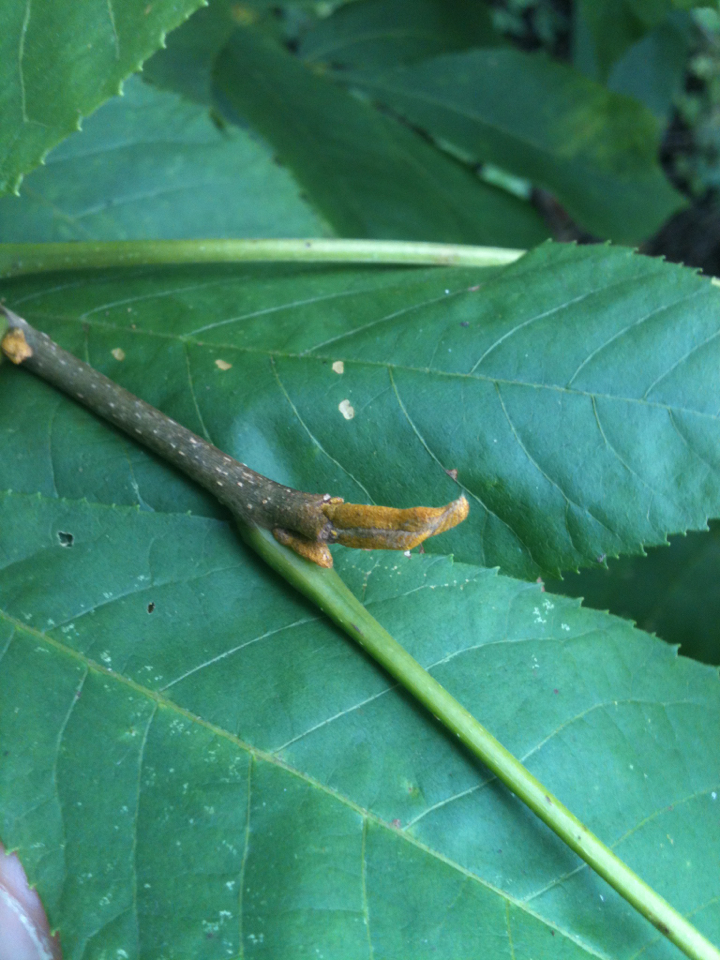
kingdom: Plantae
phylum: Tracheophyta
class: Magnoliopsida
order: Fagales
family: Juglandaceae
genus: Carya
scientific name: Carya cordiformis
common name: Bitternut hickory
